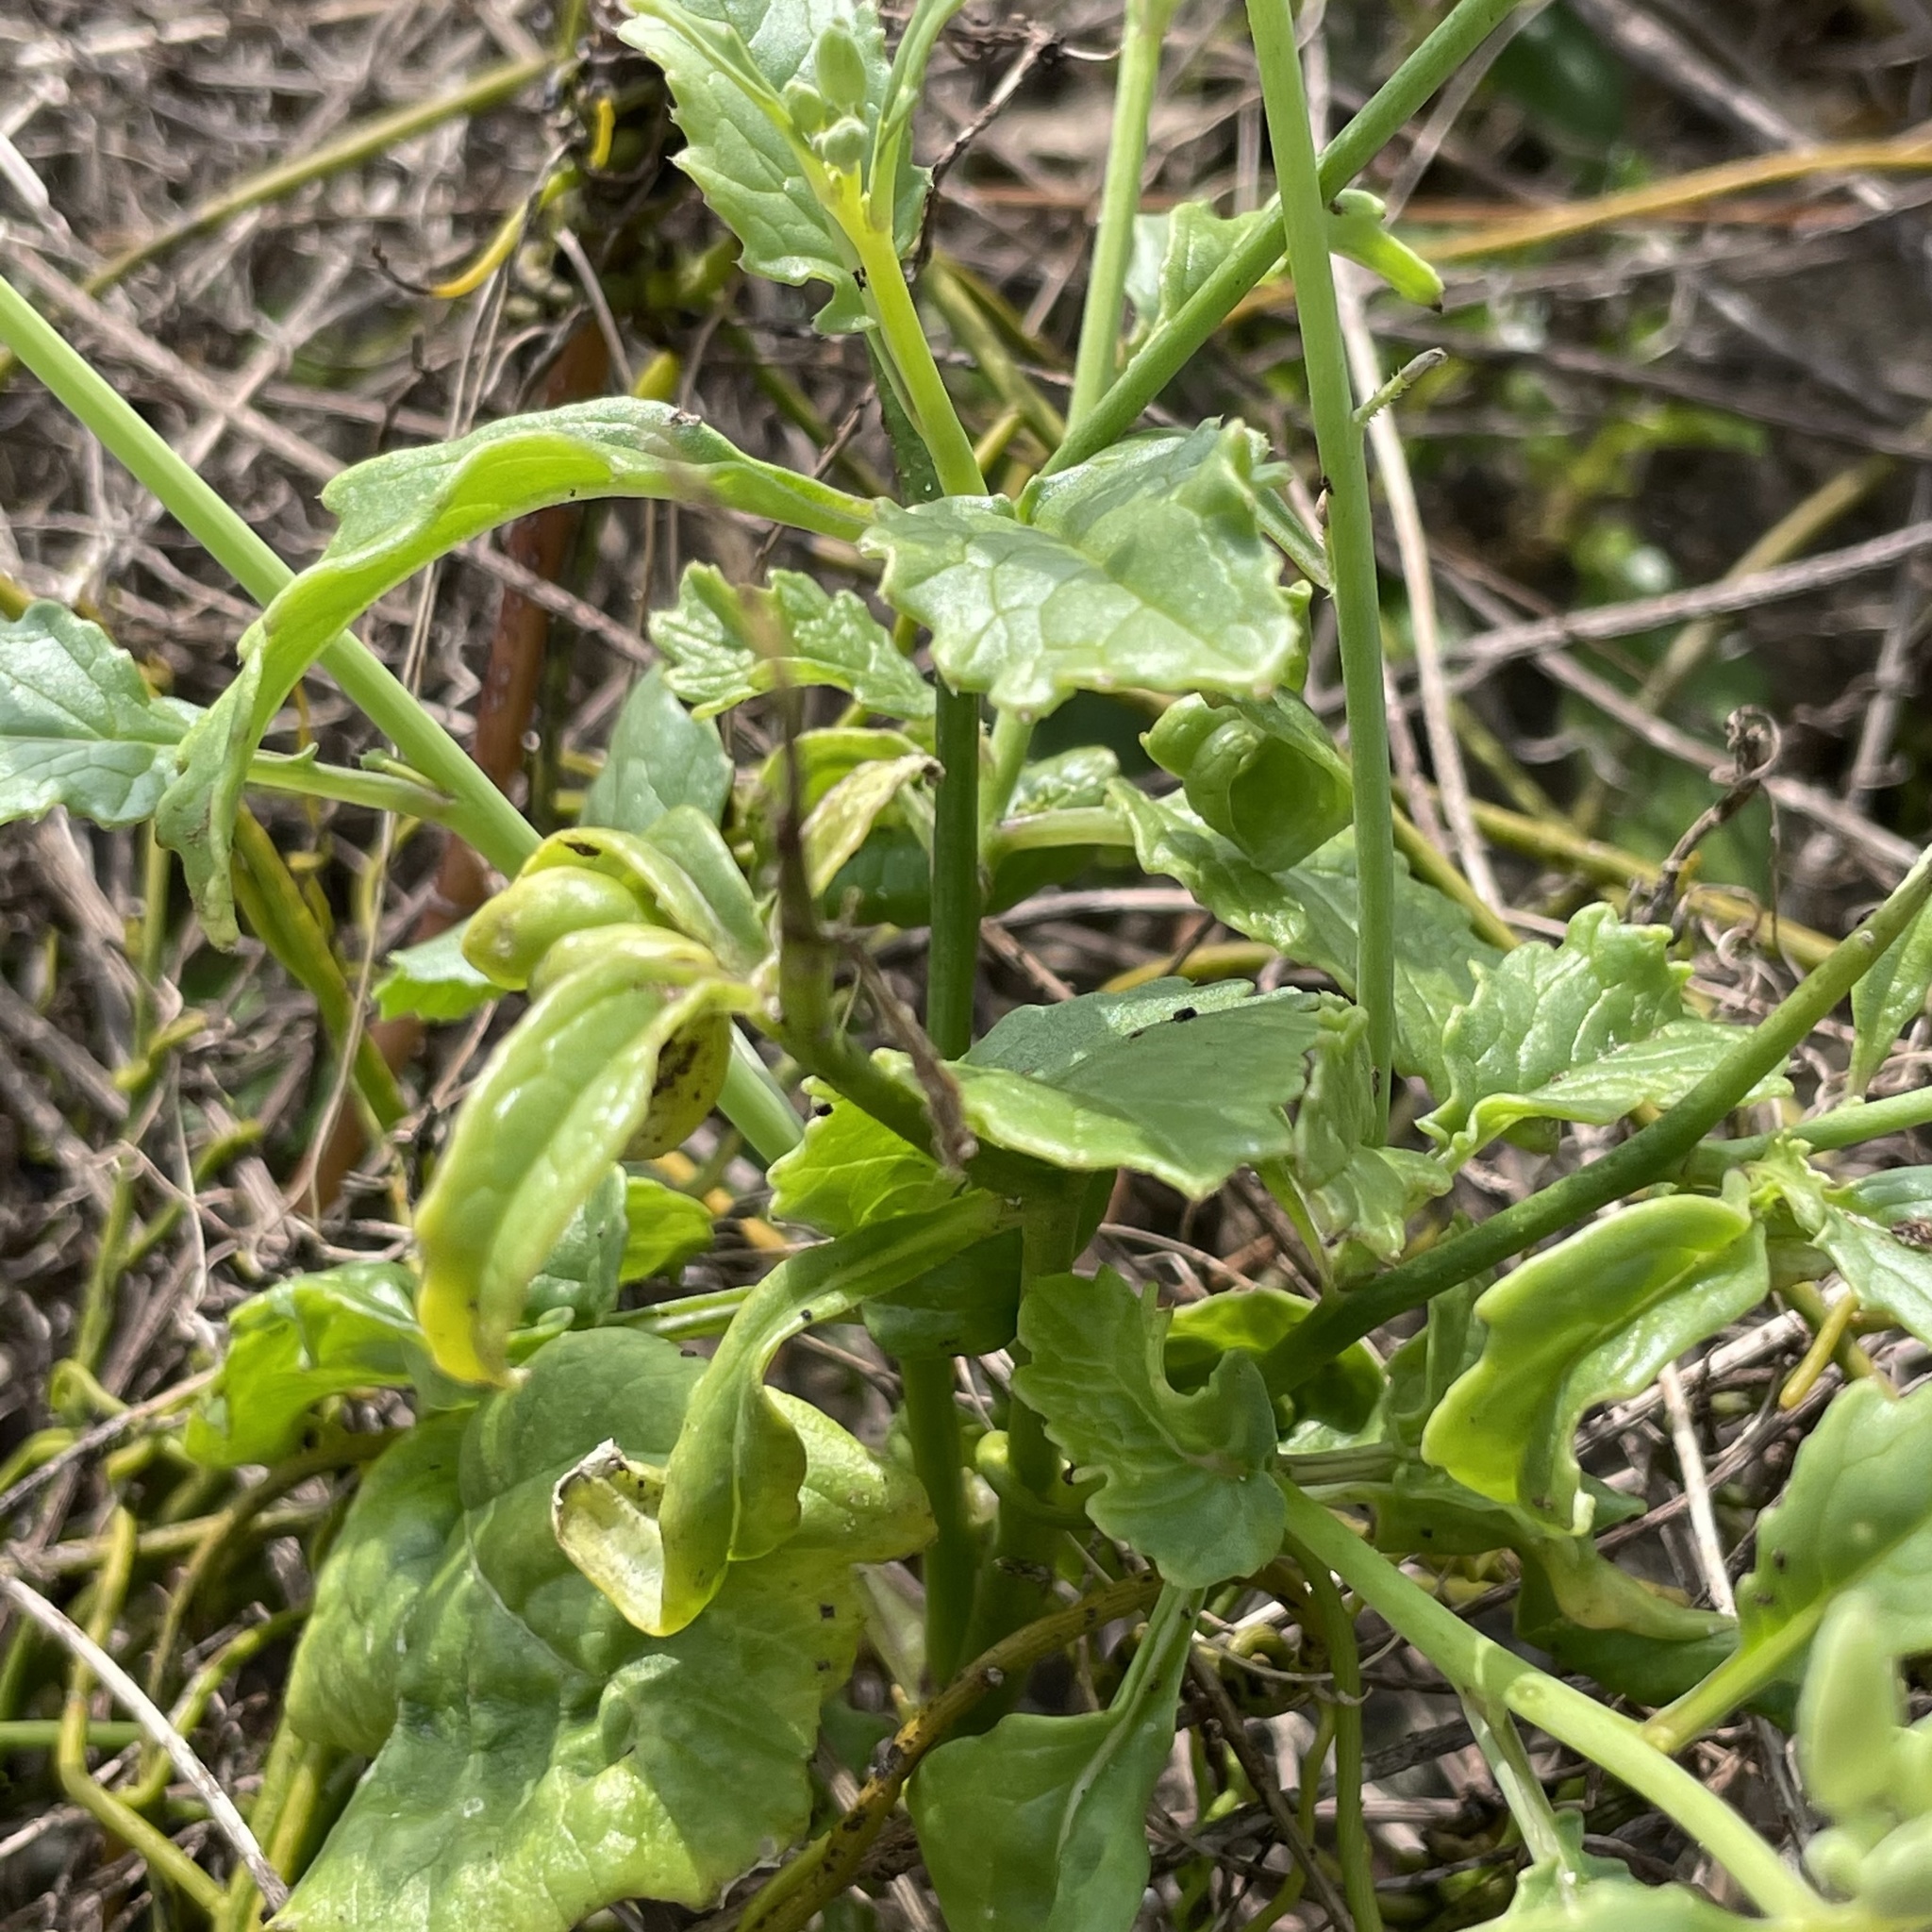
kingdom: Plantae
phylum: Tracheophyta
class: Magnoliopsida
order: Brassicales
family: Brassicaceae
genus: Raphanus
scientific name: Raphanus sativus
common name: Cultivated radish
